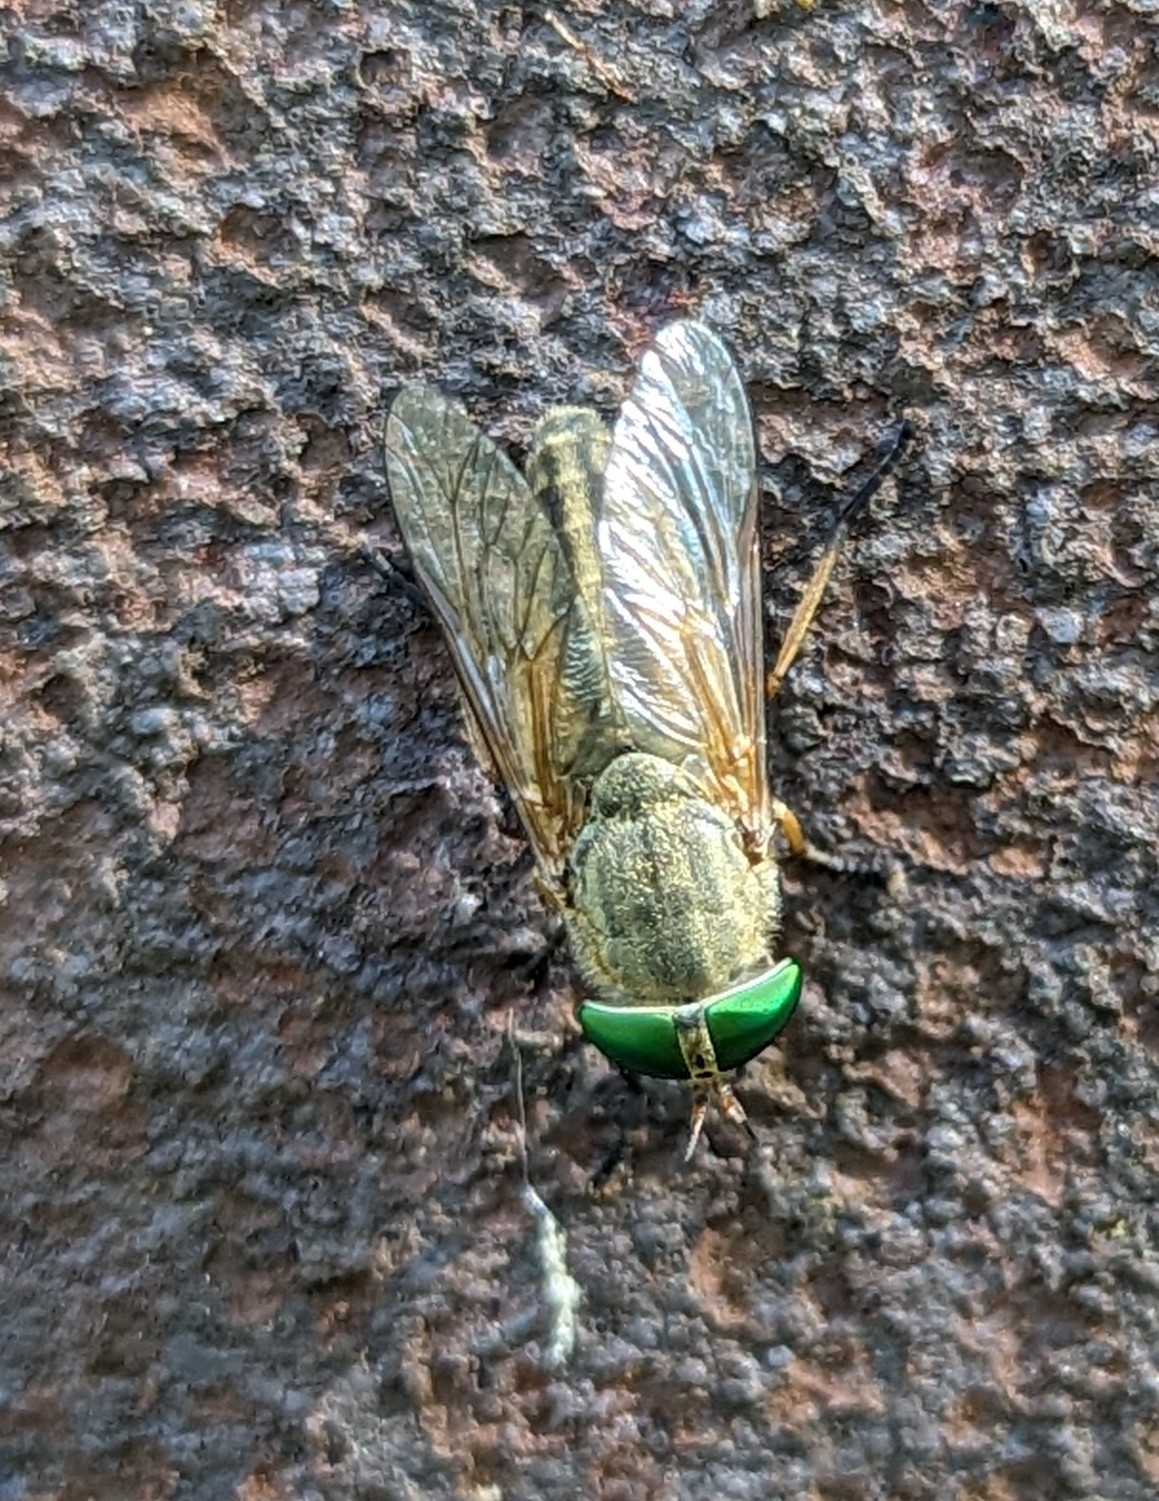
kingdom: Animalia
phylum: Arthropoda
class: Insecta
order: Diptera
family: Tabanidae
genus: Tabanus
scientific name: Tabanus
